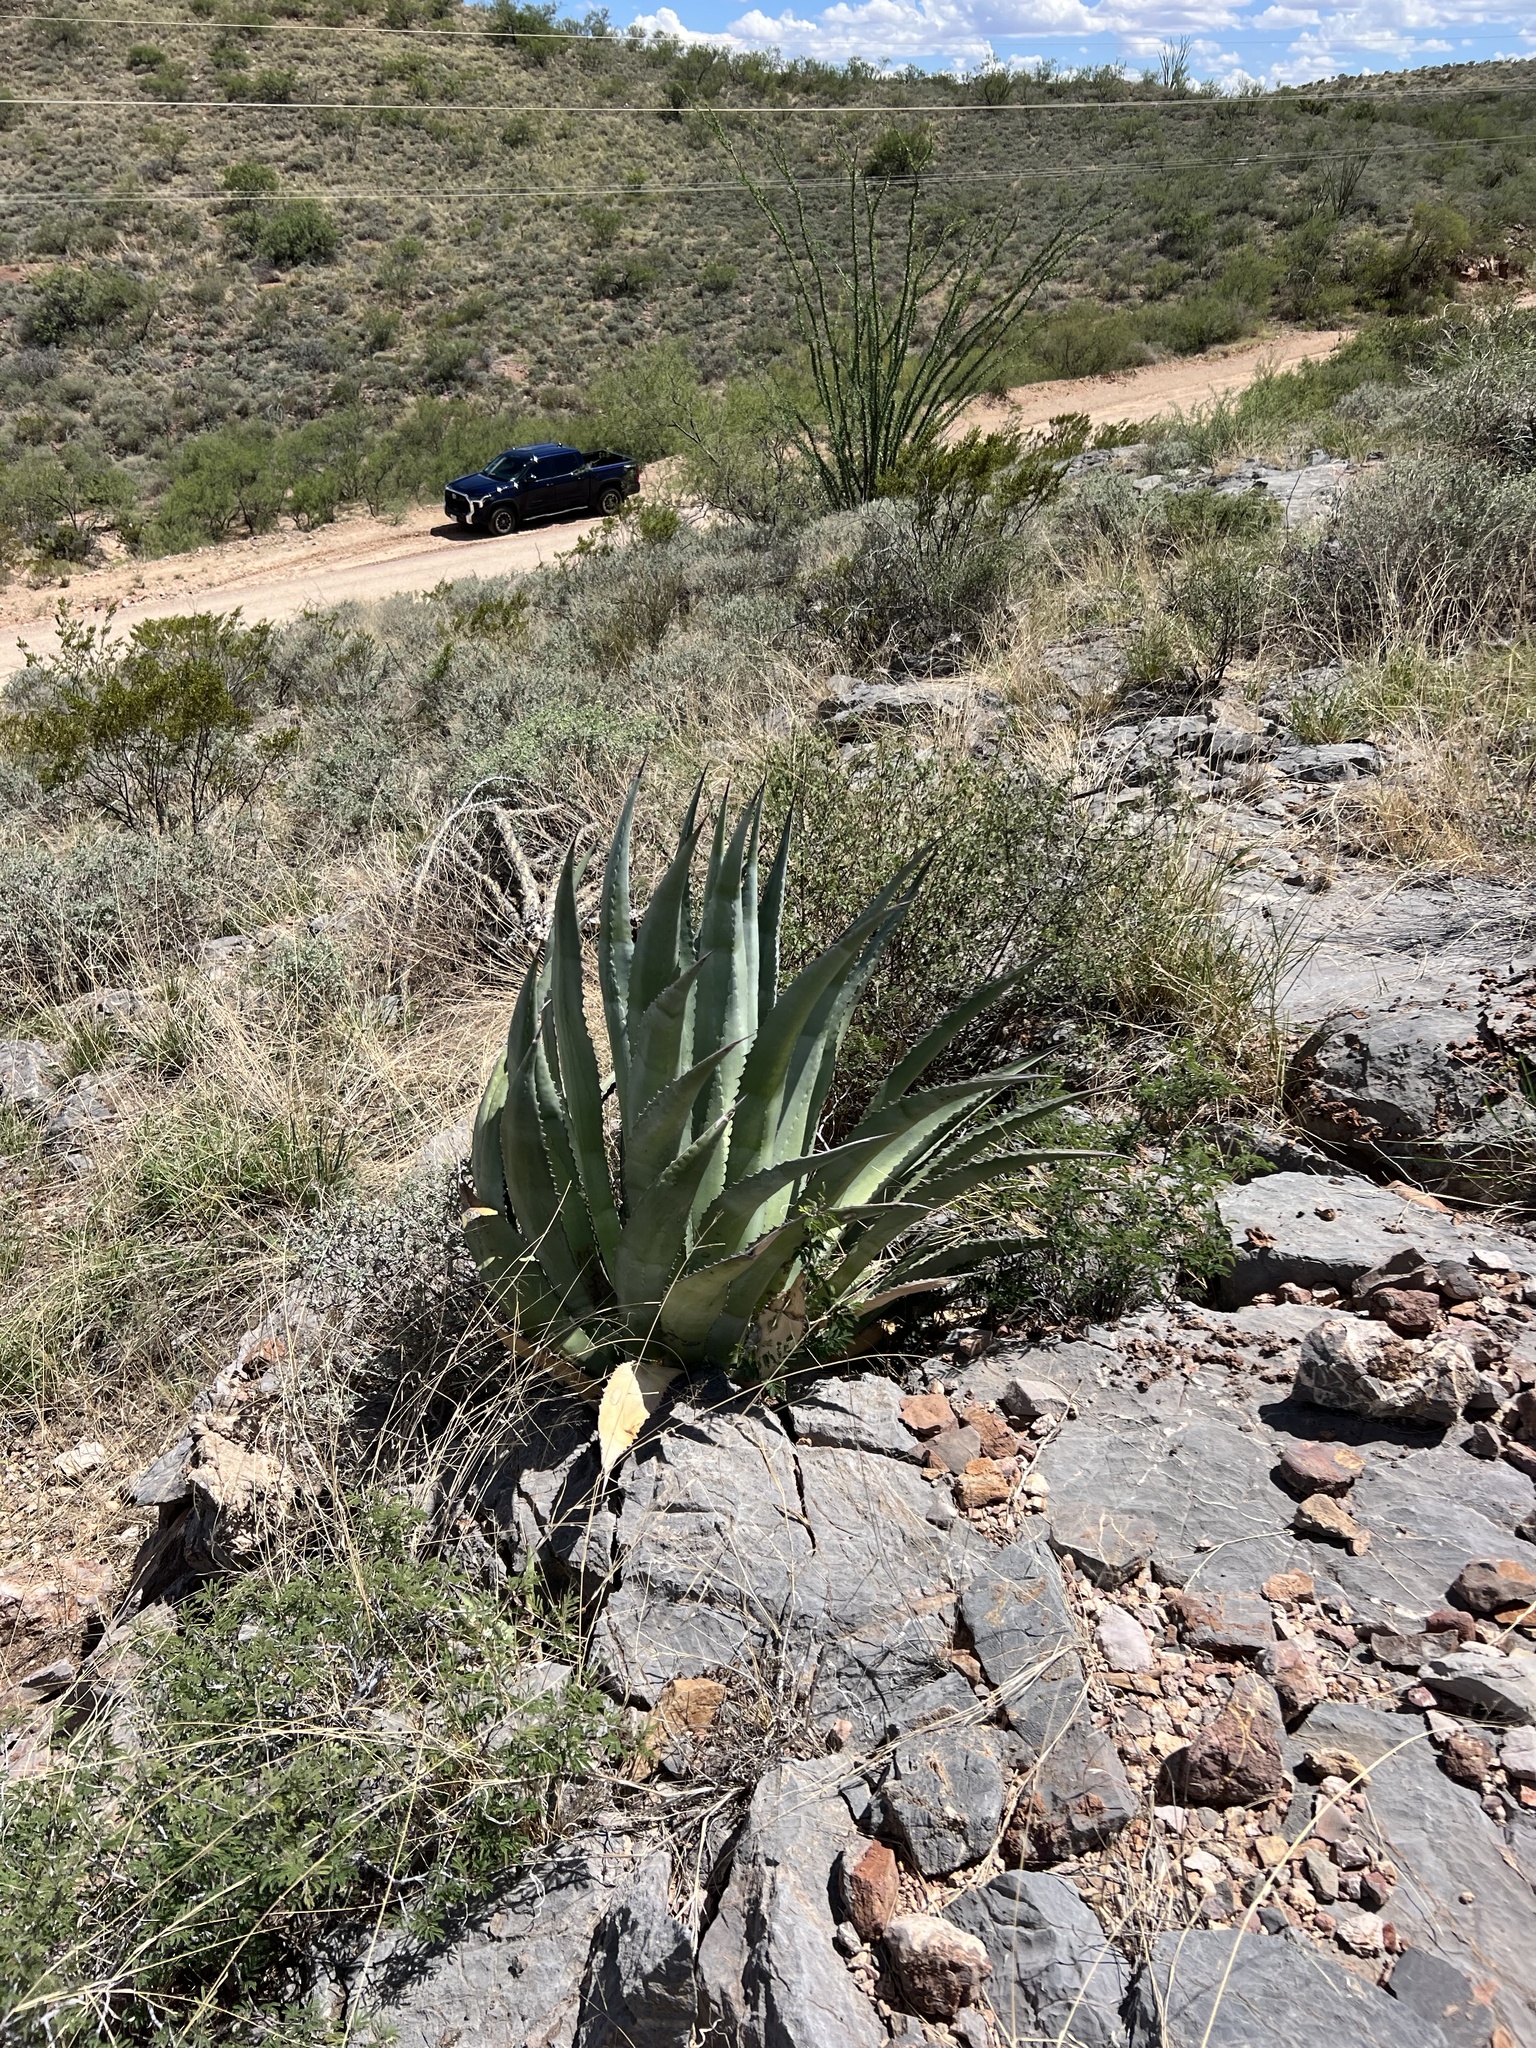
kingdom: Plantae
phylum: Tracheophyta
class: Liliopsida
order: Asparagales
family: Asparagaceae
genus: Agave
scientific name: Agave palmeri
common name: Palmer agave
